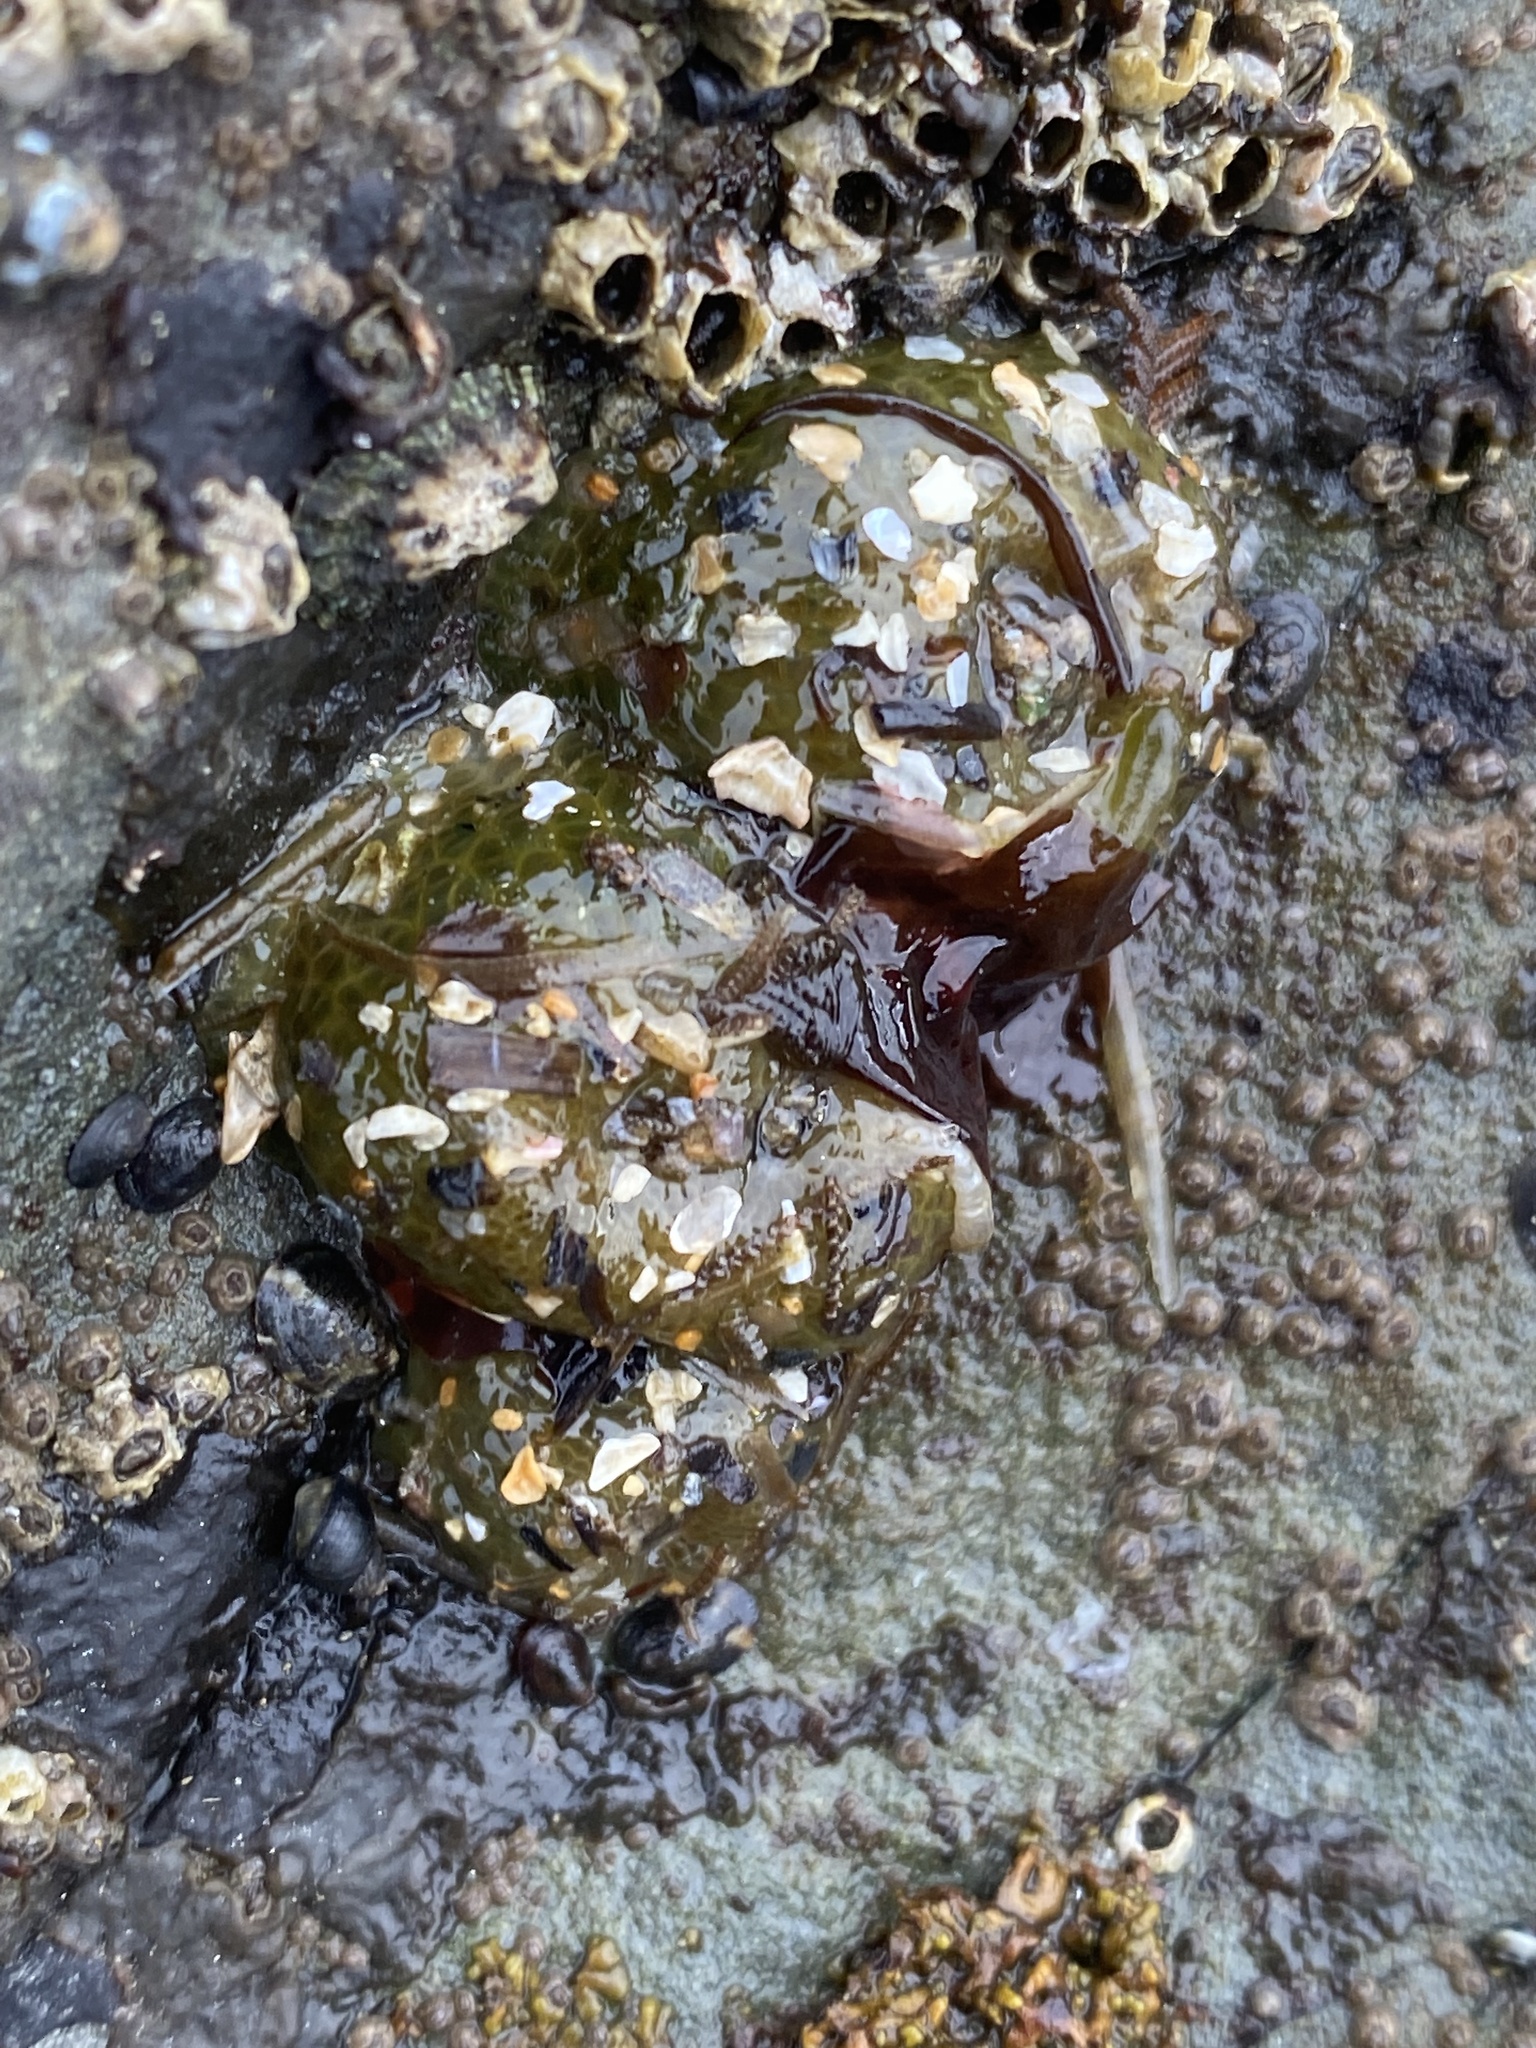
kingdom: Animalia
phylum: Cnidaria
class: Anthozoa
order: Actiniaria
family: Actiniidae
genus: Anthopleura
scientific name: Anthopleura elegantissima
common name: Clonal anemone
